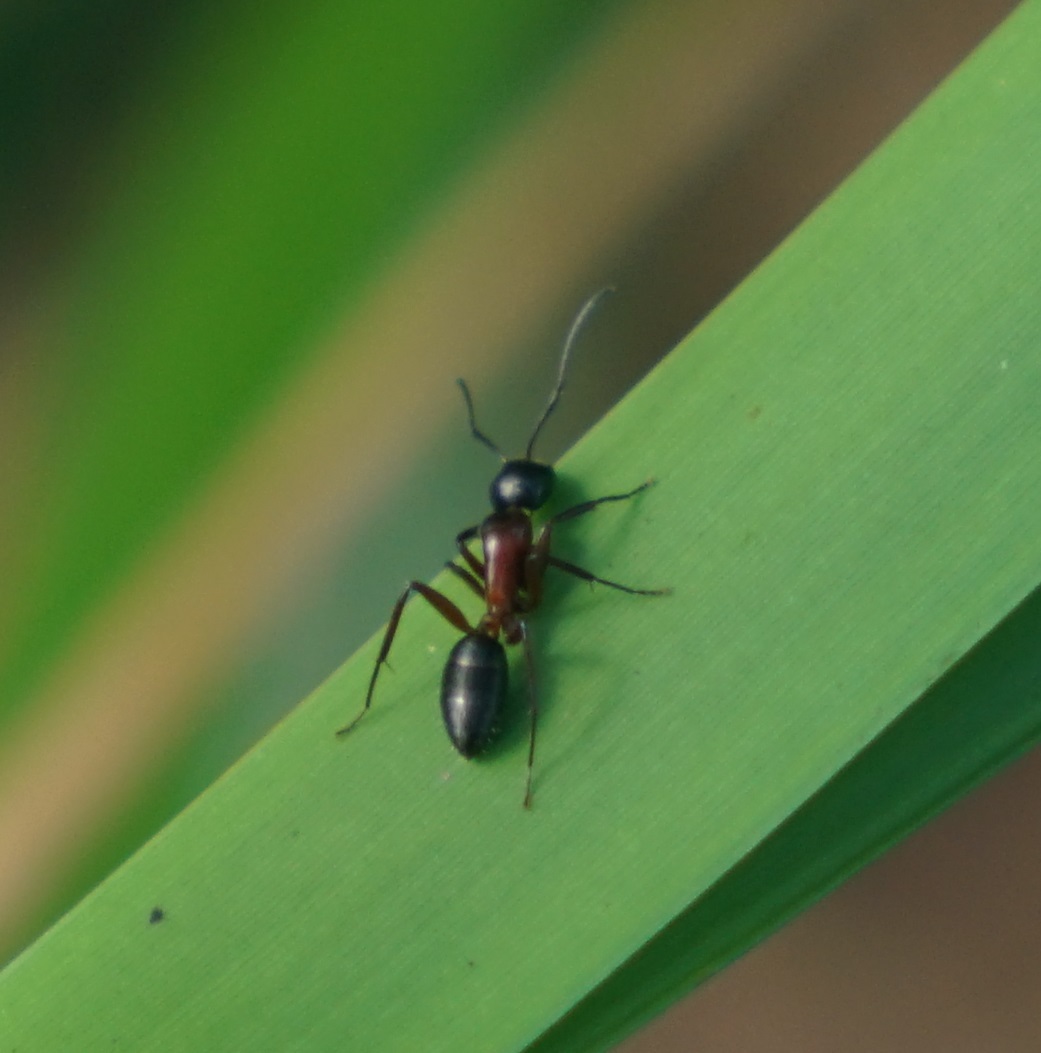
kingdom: Animalia
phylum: Arthropoda
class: Insecta
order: Hymenoptera
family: Formicidae
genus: Camponotus
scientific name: Camponotus innexus
